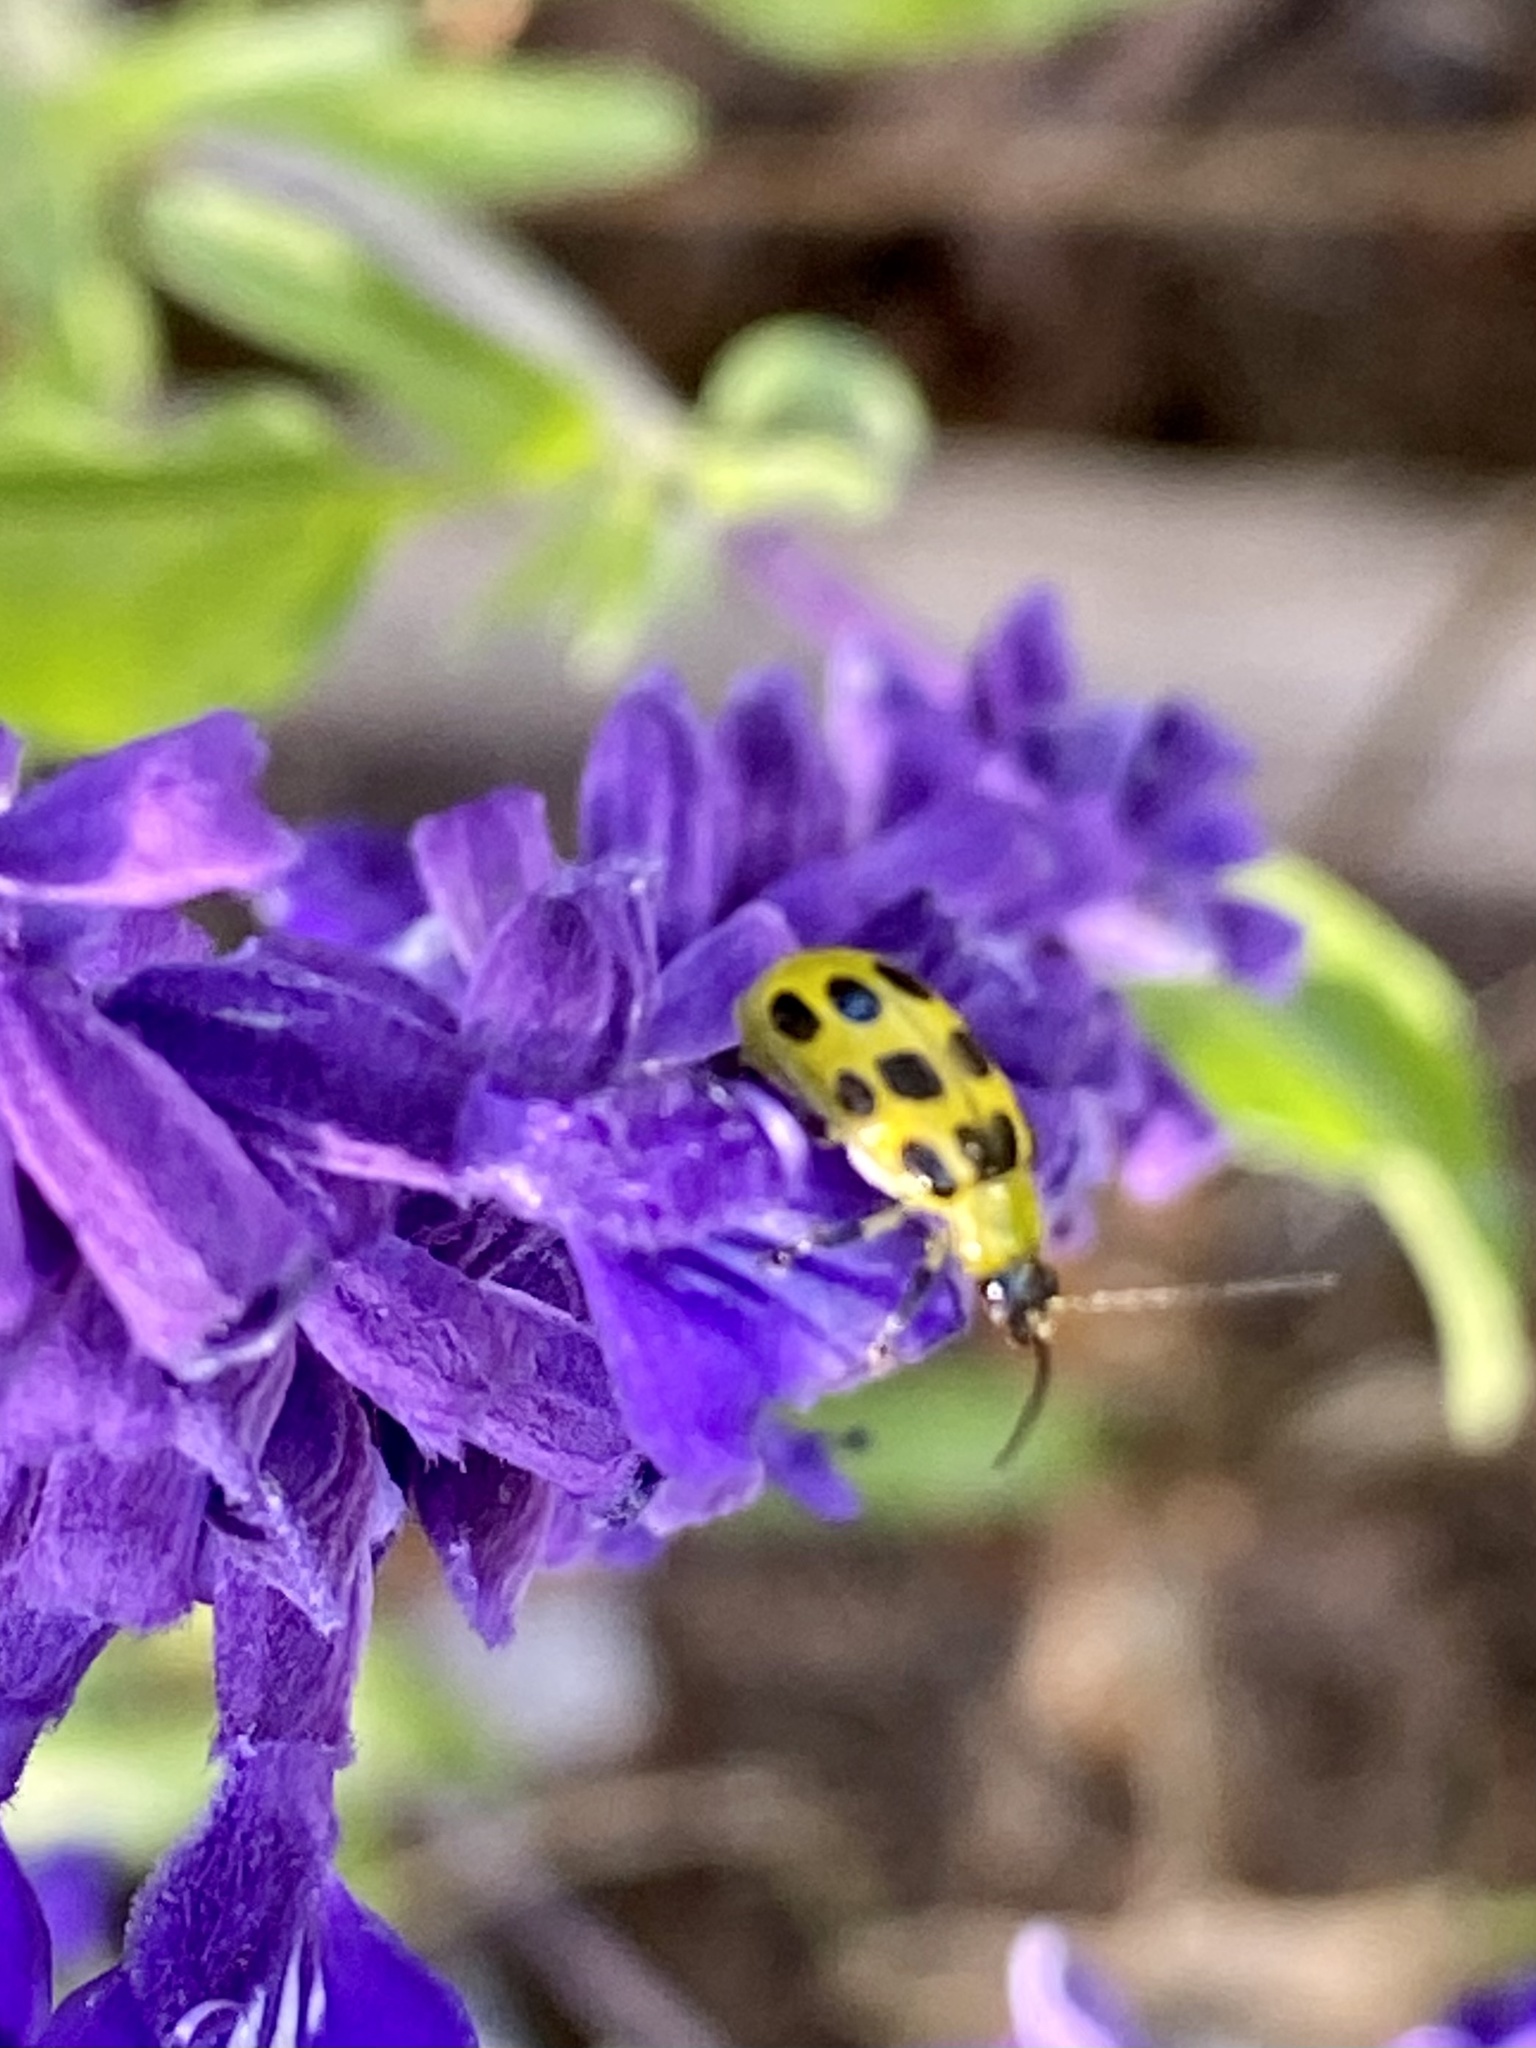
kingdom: Animalia
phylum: Arthropoda
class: Insecta
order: Coleoptera
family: Chrysomelidae
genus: Diabrotica
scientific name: Diabrotica undecimpunctata
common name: Spotted cucumber beetle
